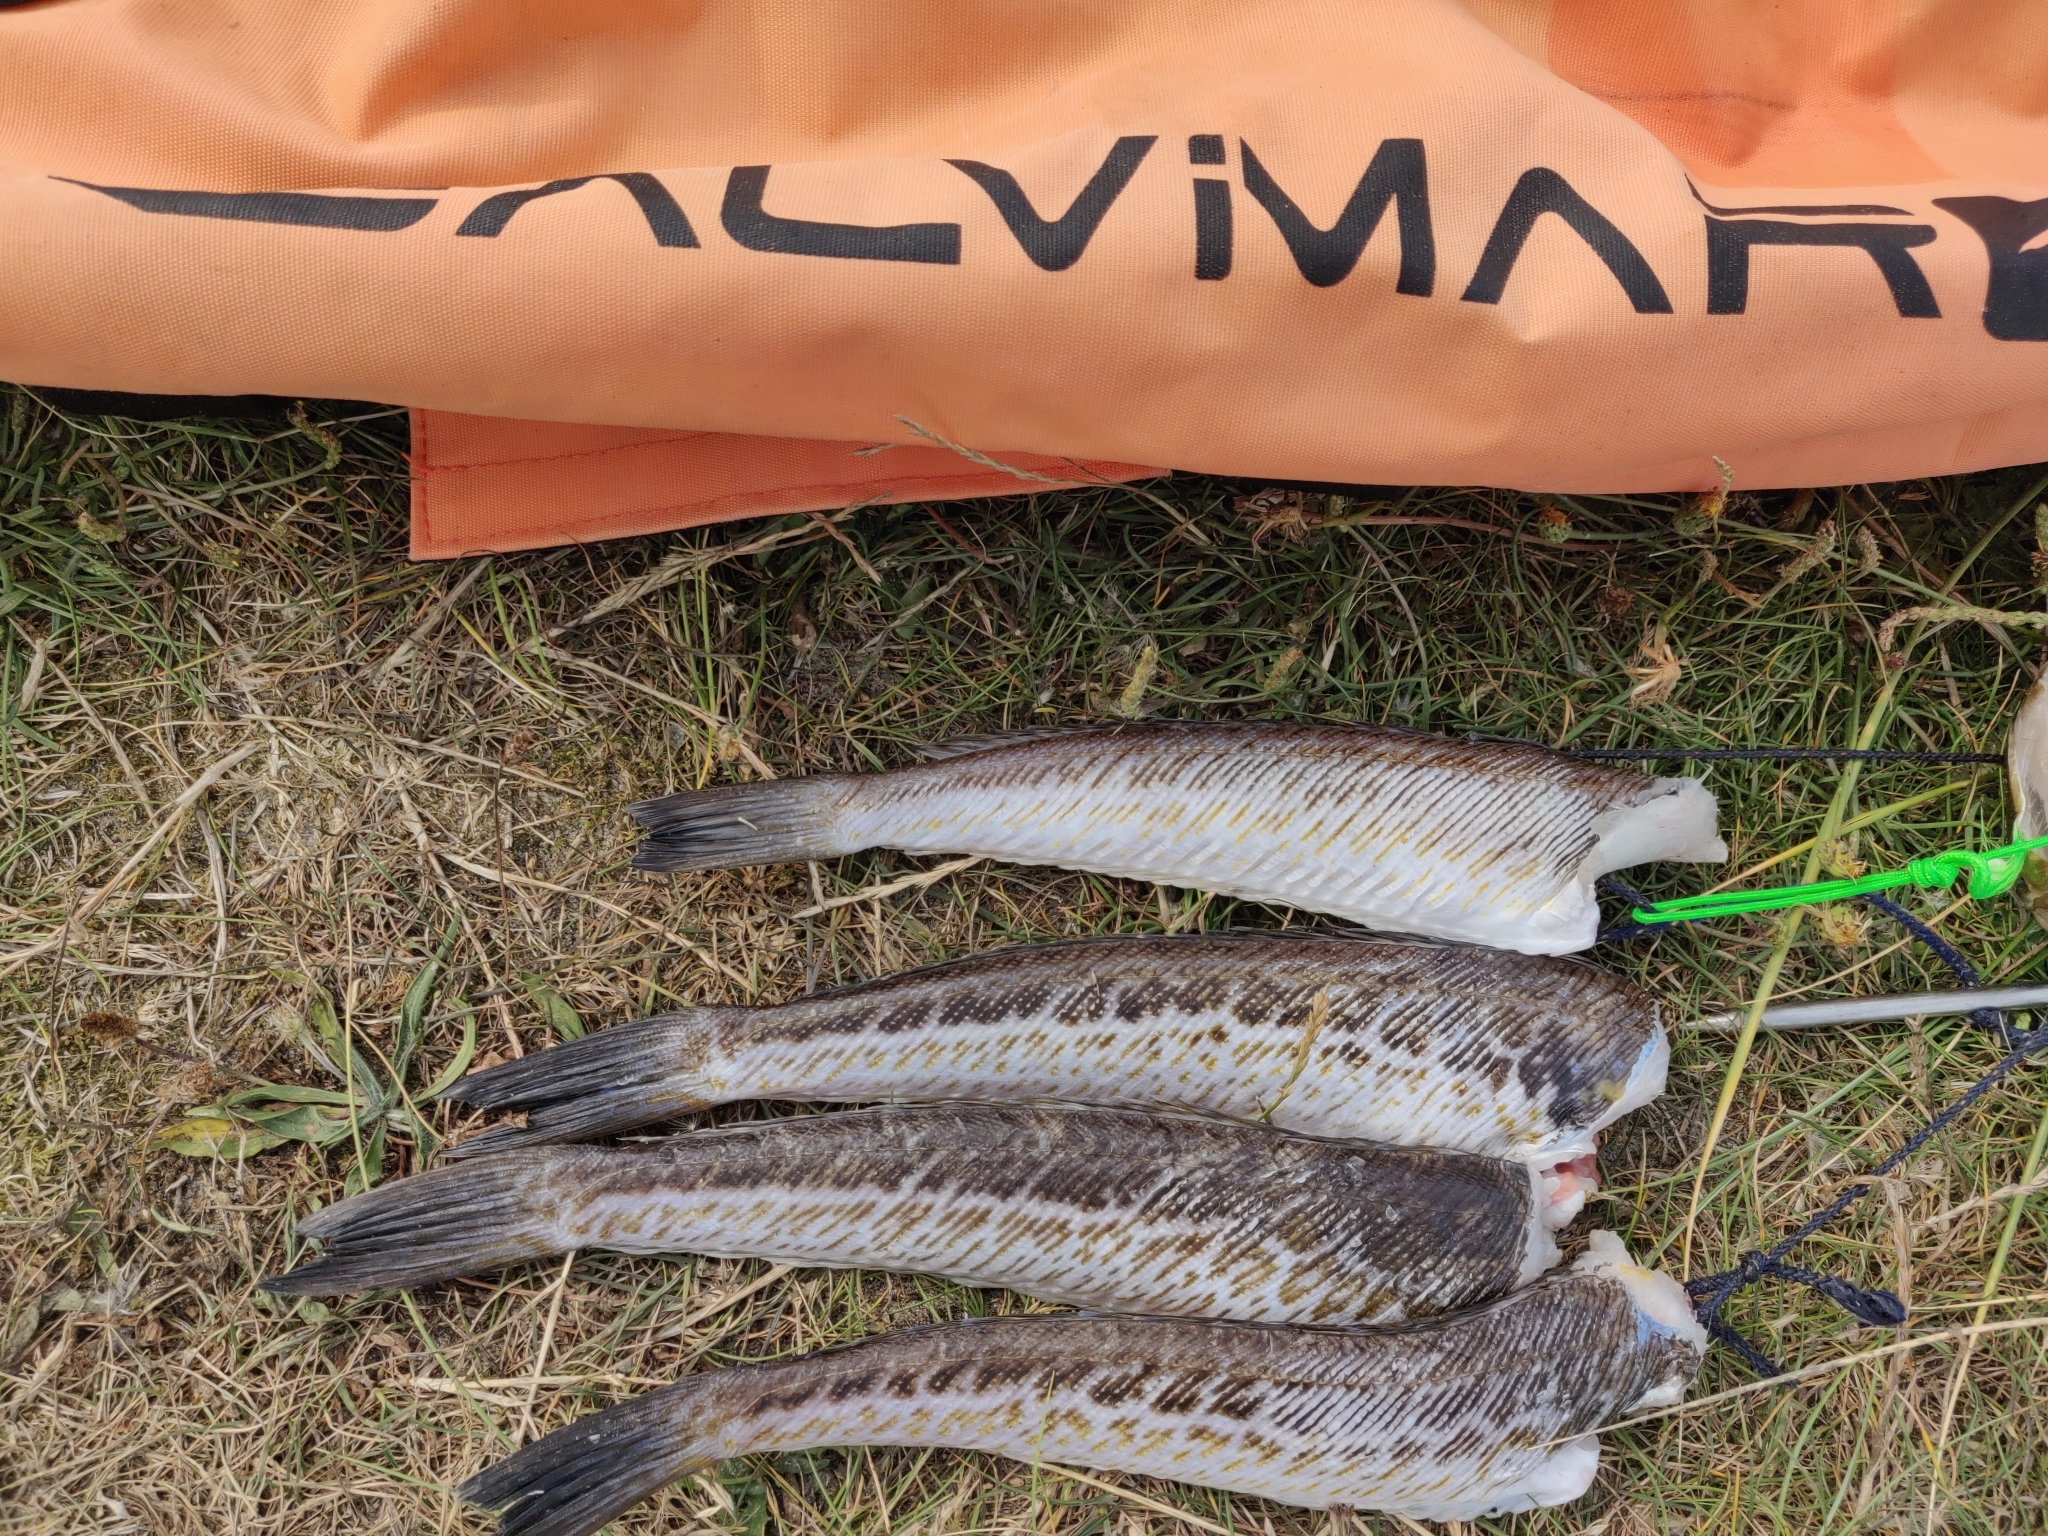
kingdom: Animalia
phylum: Chordata
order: Perciformes
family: Trachinidae
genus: Trachinus
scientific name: Trachinus draco
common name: Greater weever
